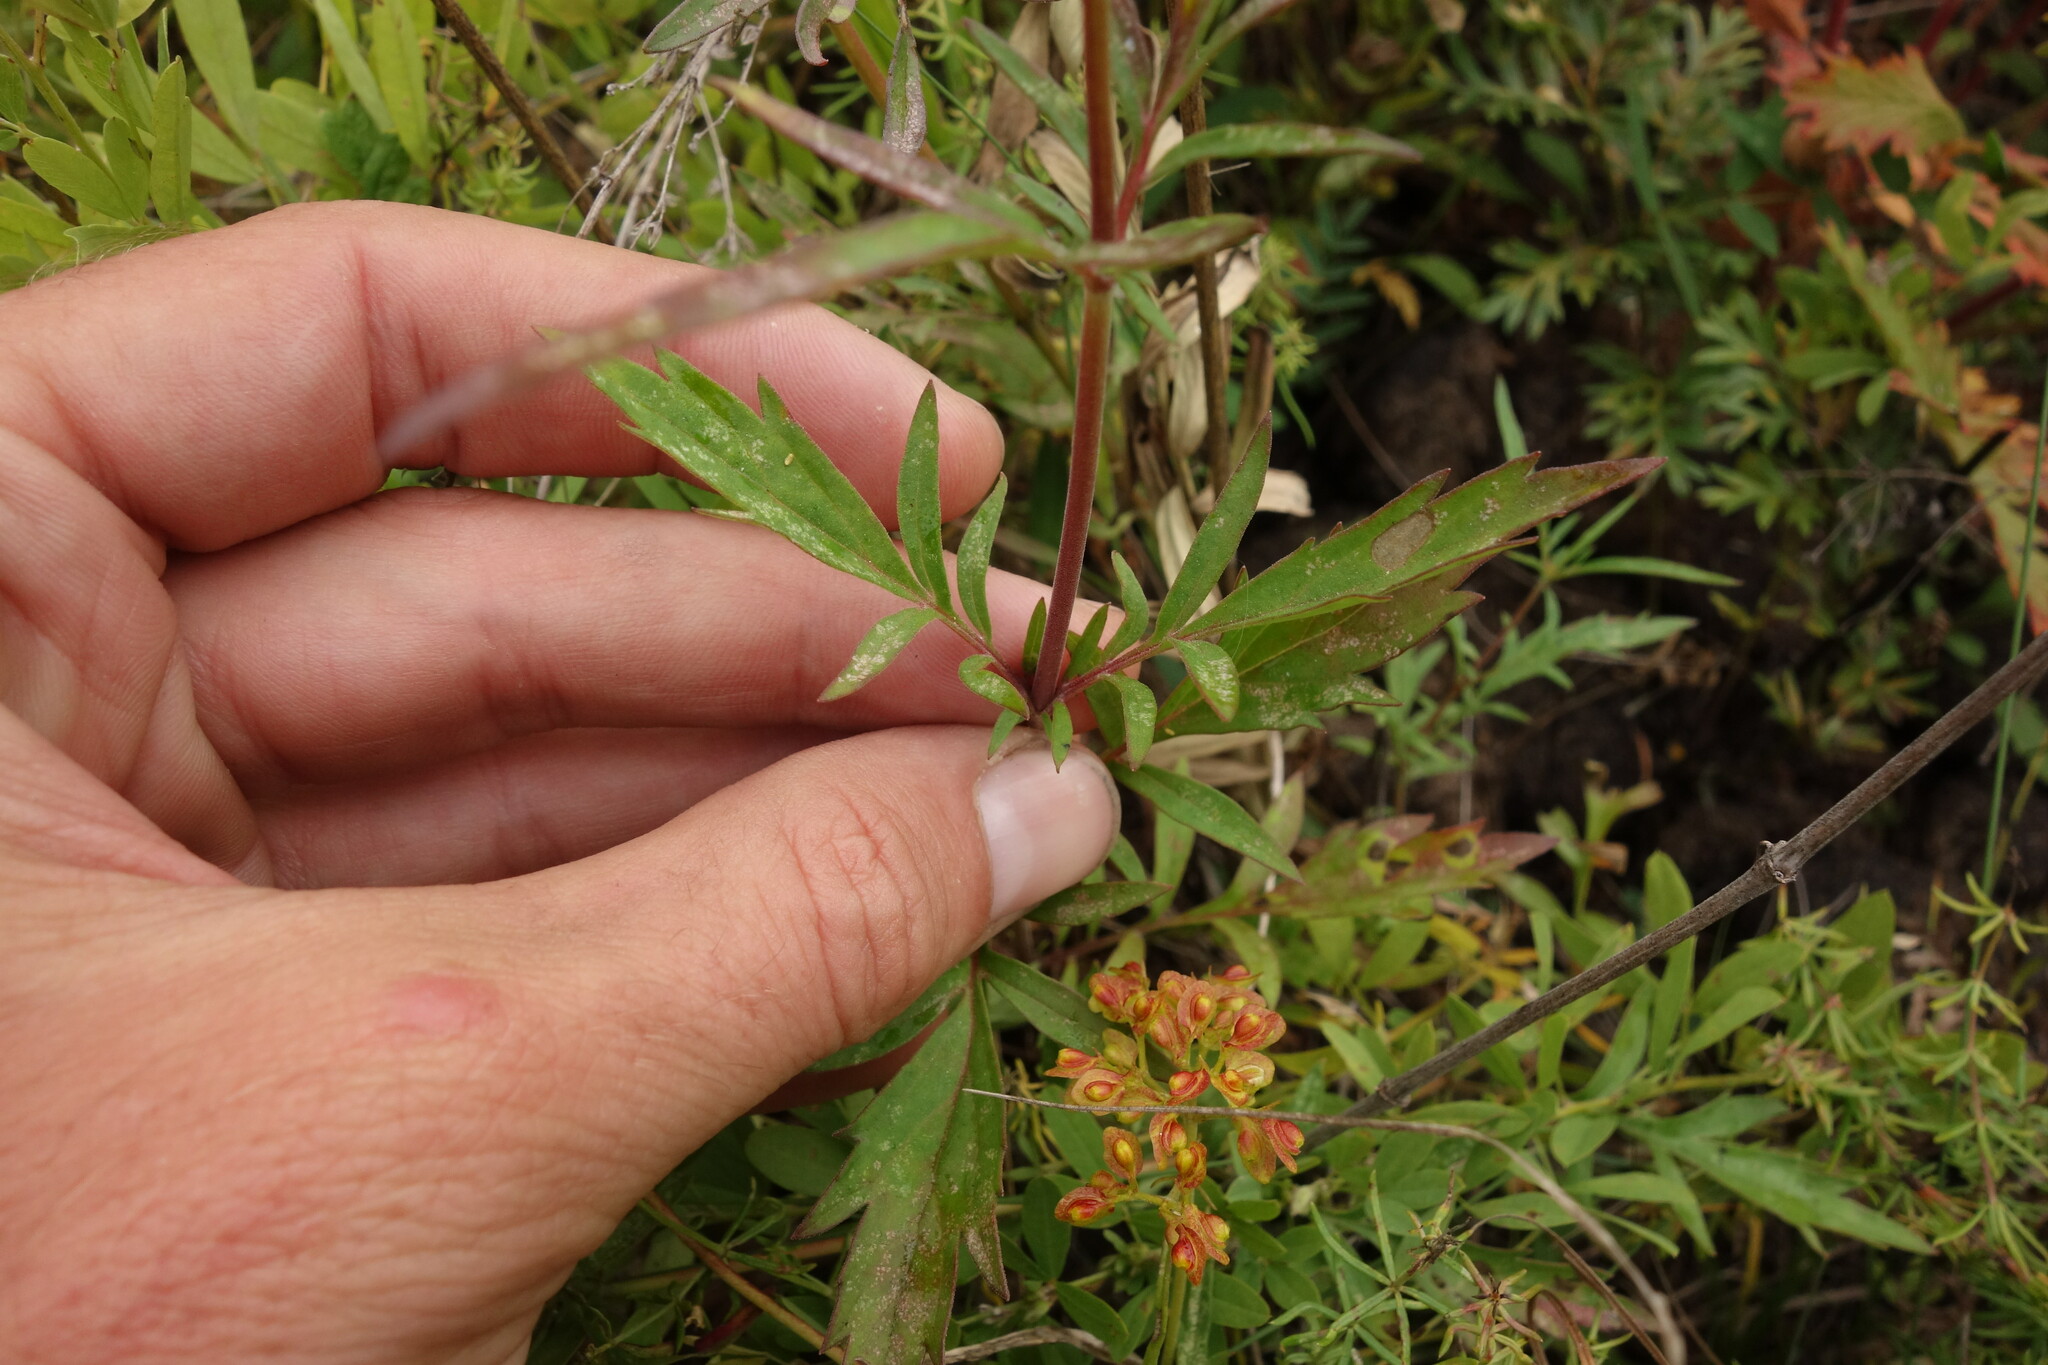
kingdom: Plantae
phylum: Tracheophyta
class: Magnoliopsida
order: Dipsacales
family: Caprifoliaceae
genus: Patrinia
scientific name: Patrinia rupestris
